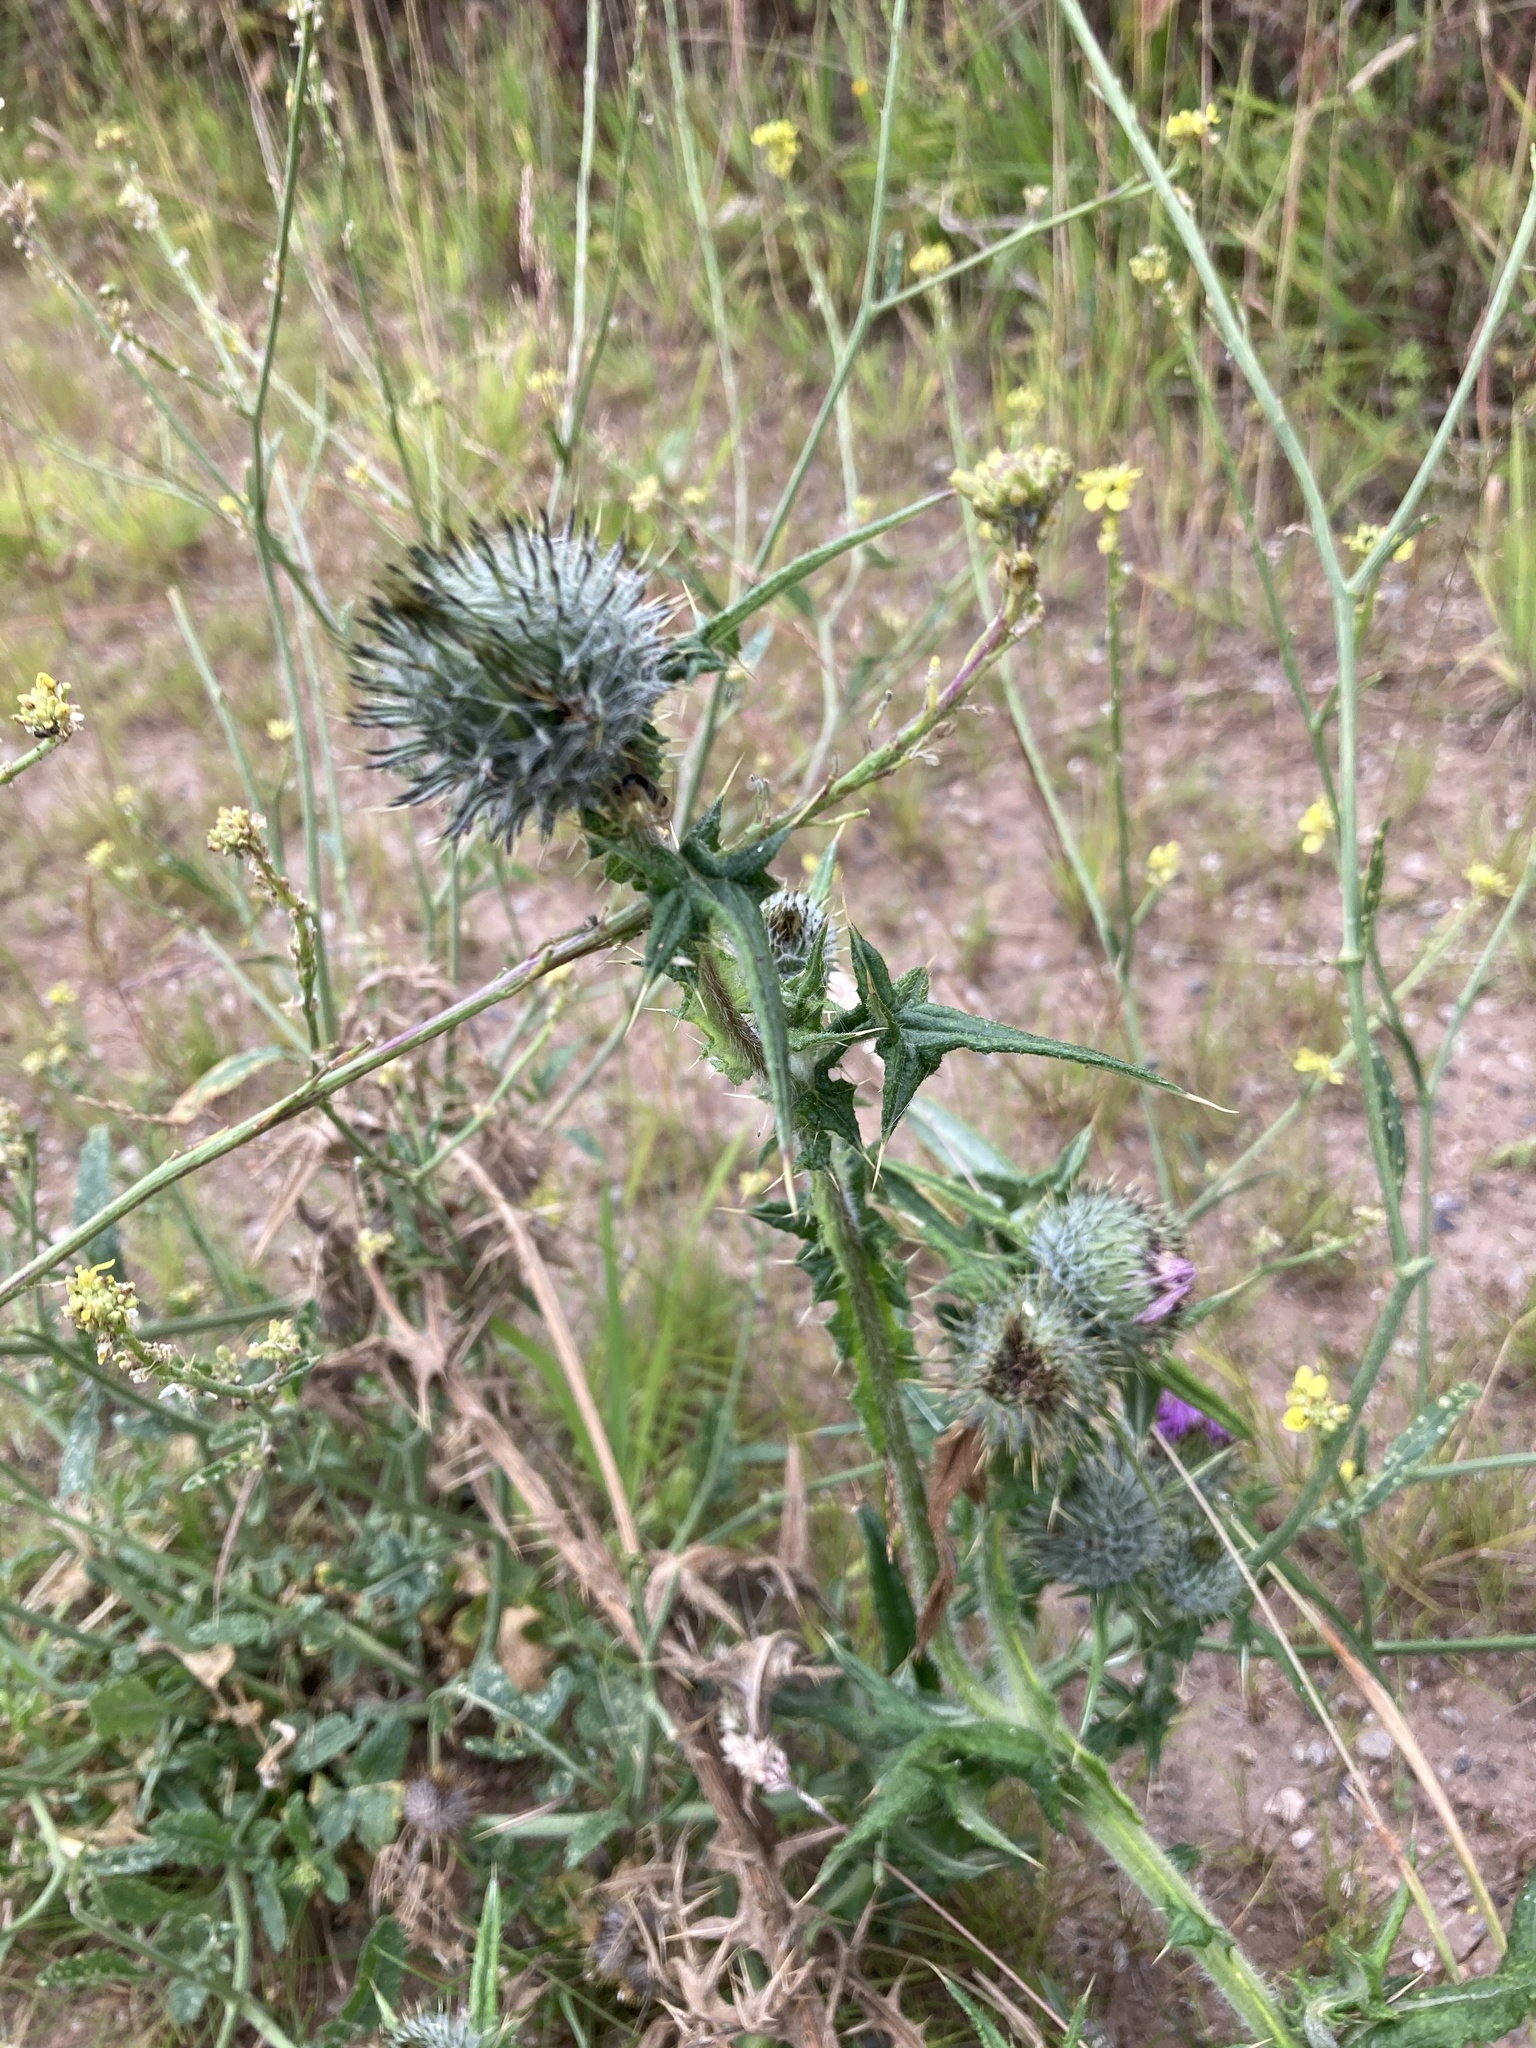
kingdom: Plantae
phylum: Tracheophyta
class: Magnoliopsida
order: Asterales
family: Asteraceae
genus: Cirsium
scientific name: Cirsium vulgare
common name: Bull thistle
